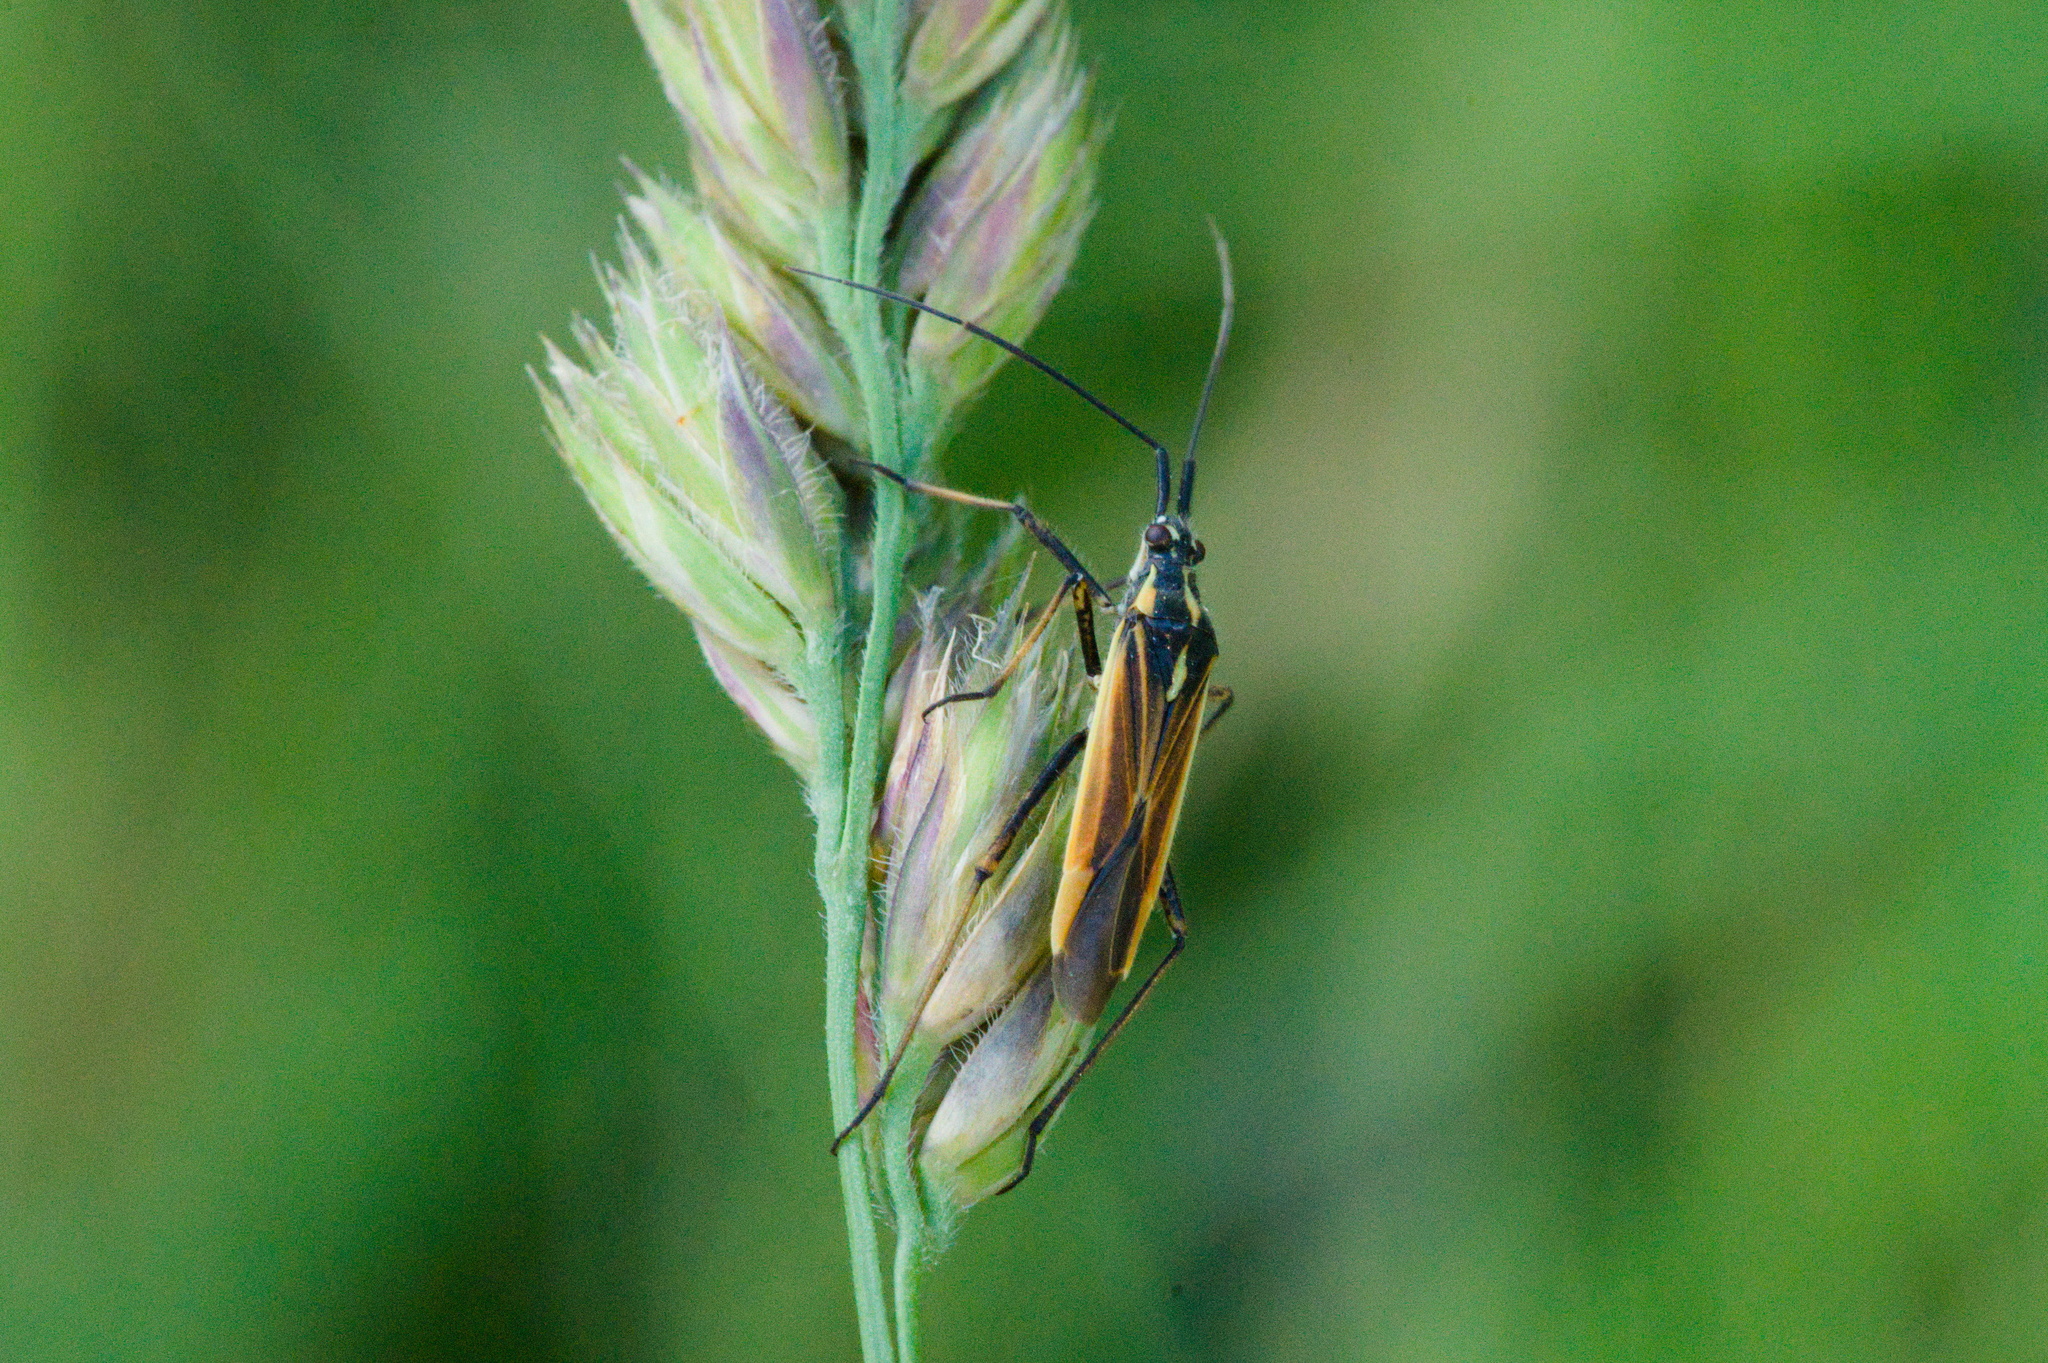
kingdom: Animalia
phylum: Arthropoda
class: Insecta
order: Hemiptera
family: Miridae
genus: Leptopterna
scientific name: Leptopterna dolabrata
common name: Meadow plant bug
